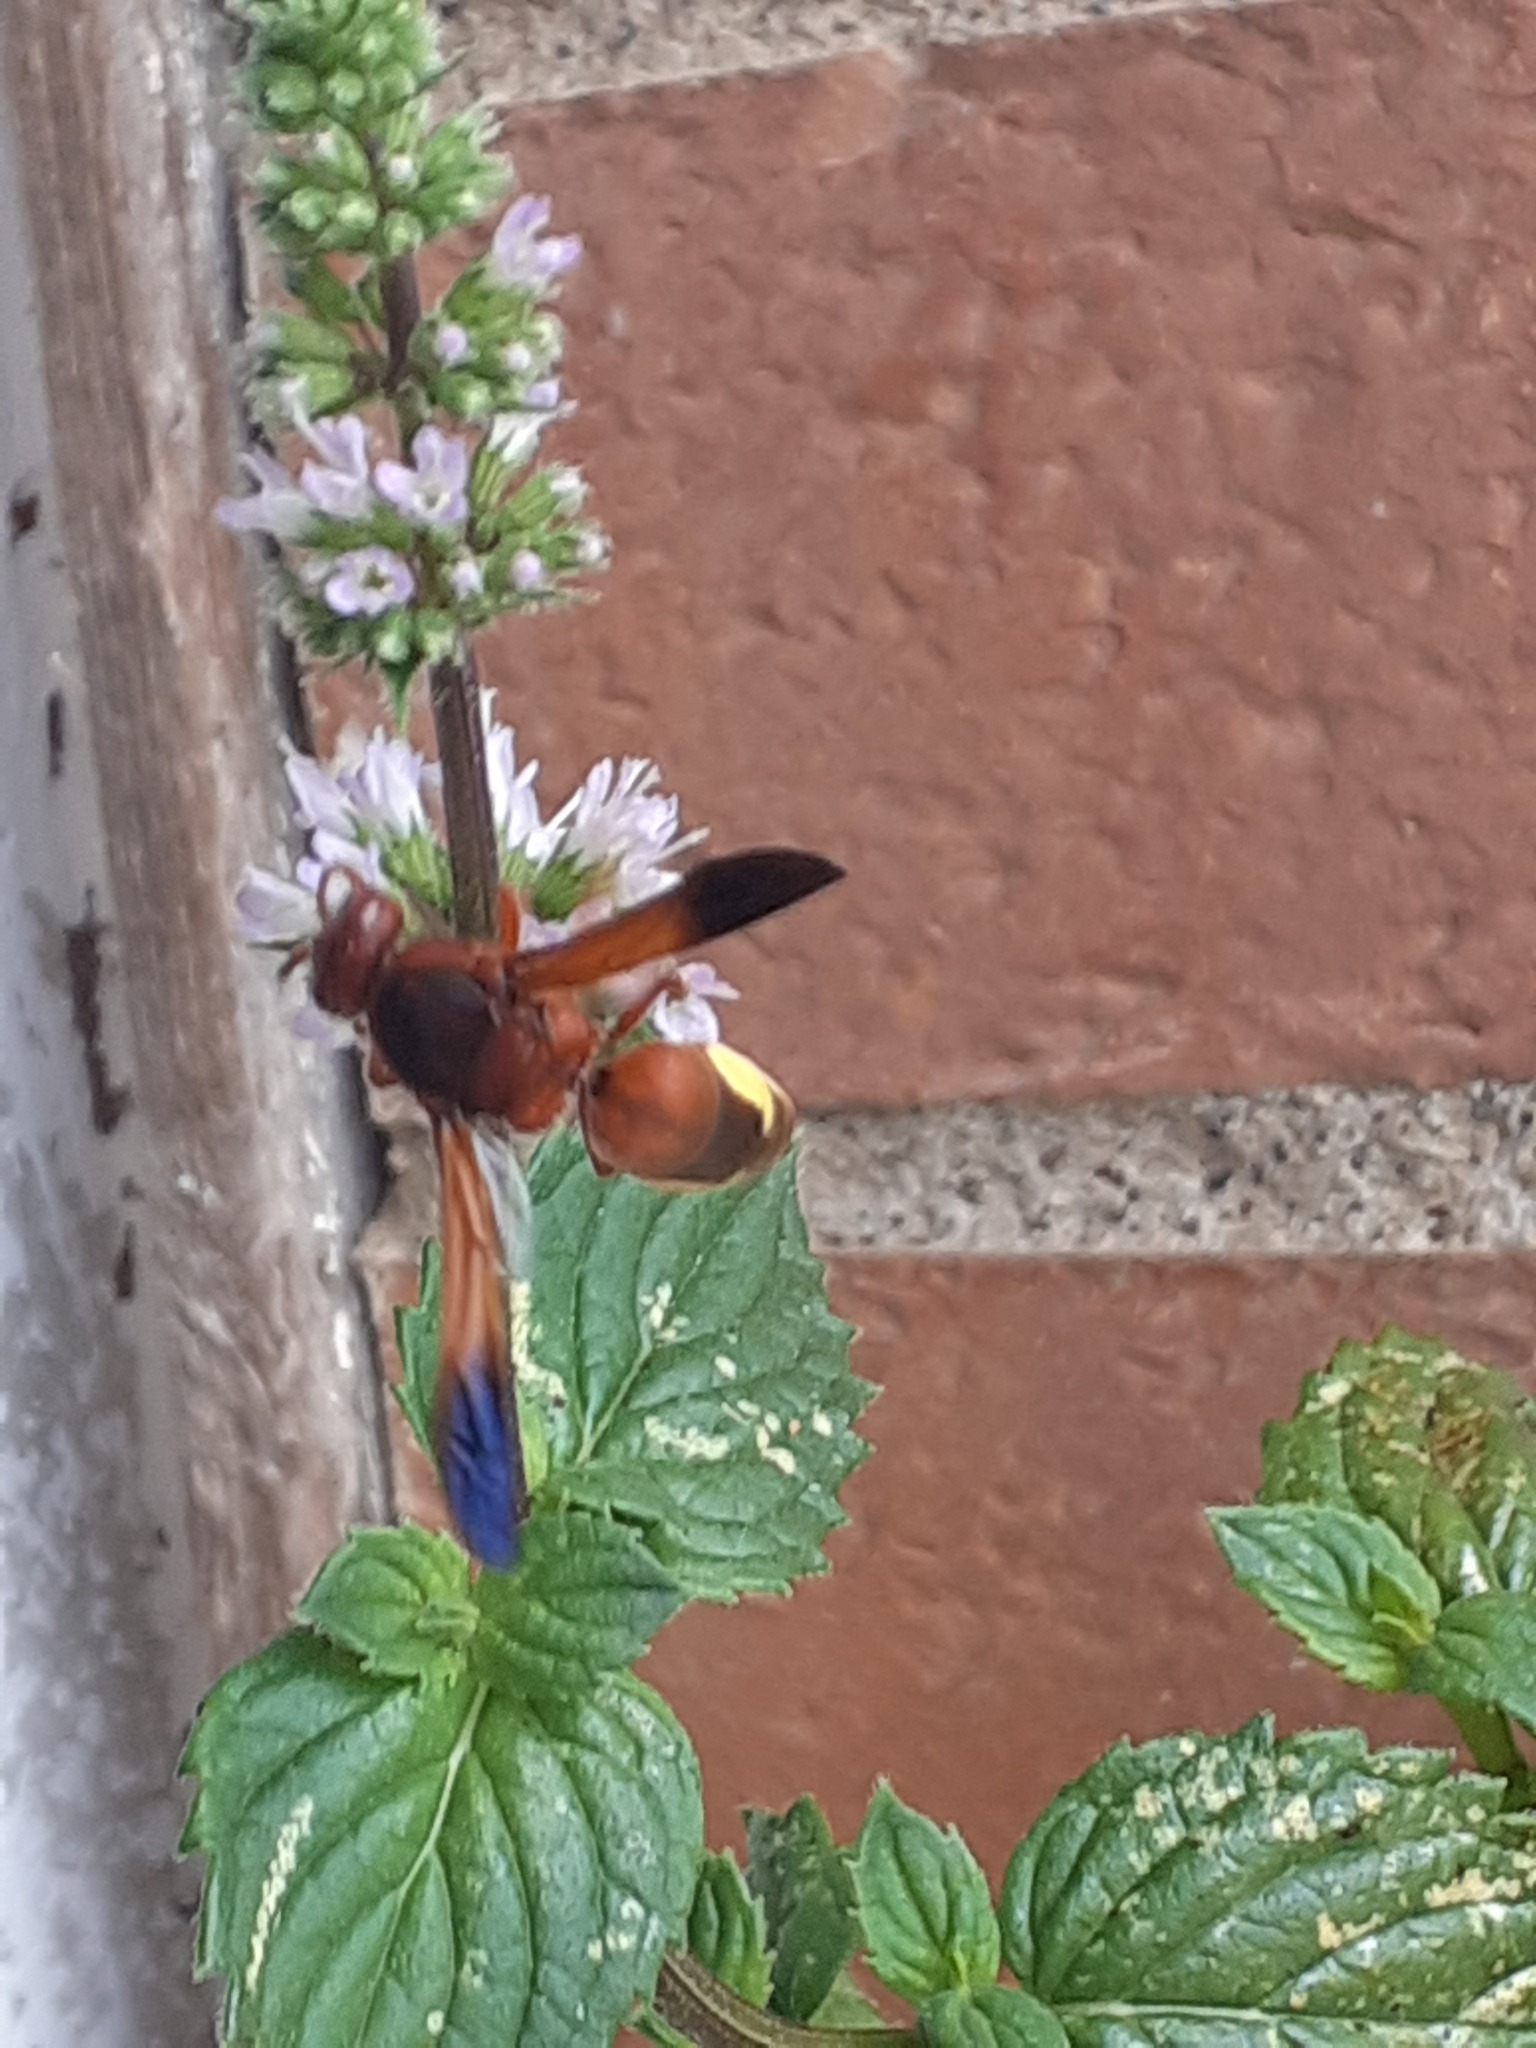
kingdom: Animalia
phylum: Arthropoda
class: Insecta
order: Hymenoptera
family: Eumenidae
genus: Rhynchium
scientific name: Rhynchium oculatum
